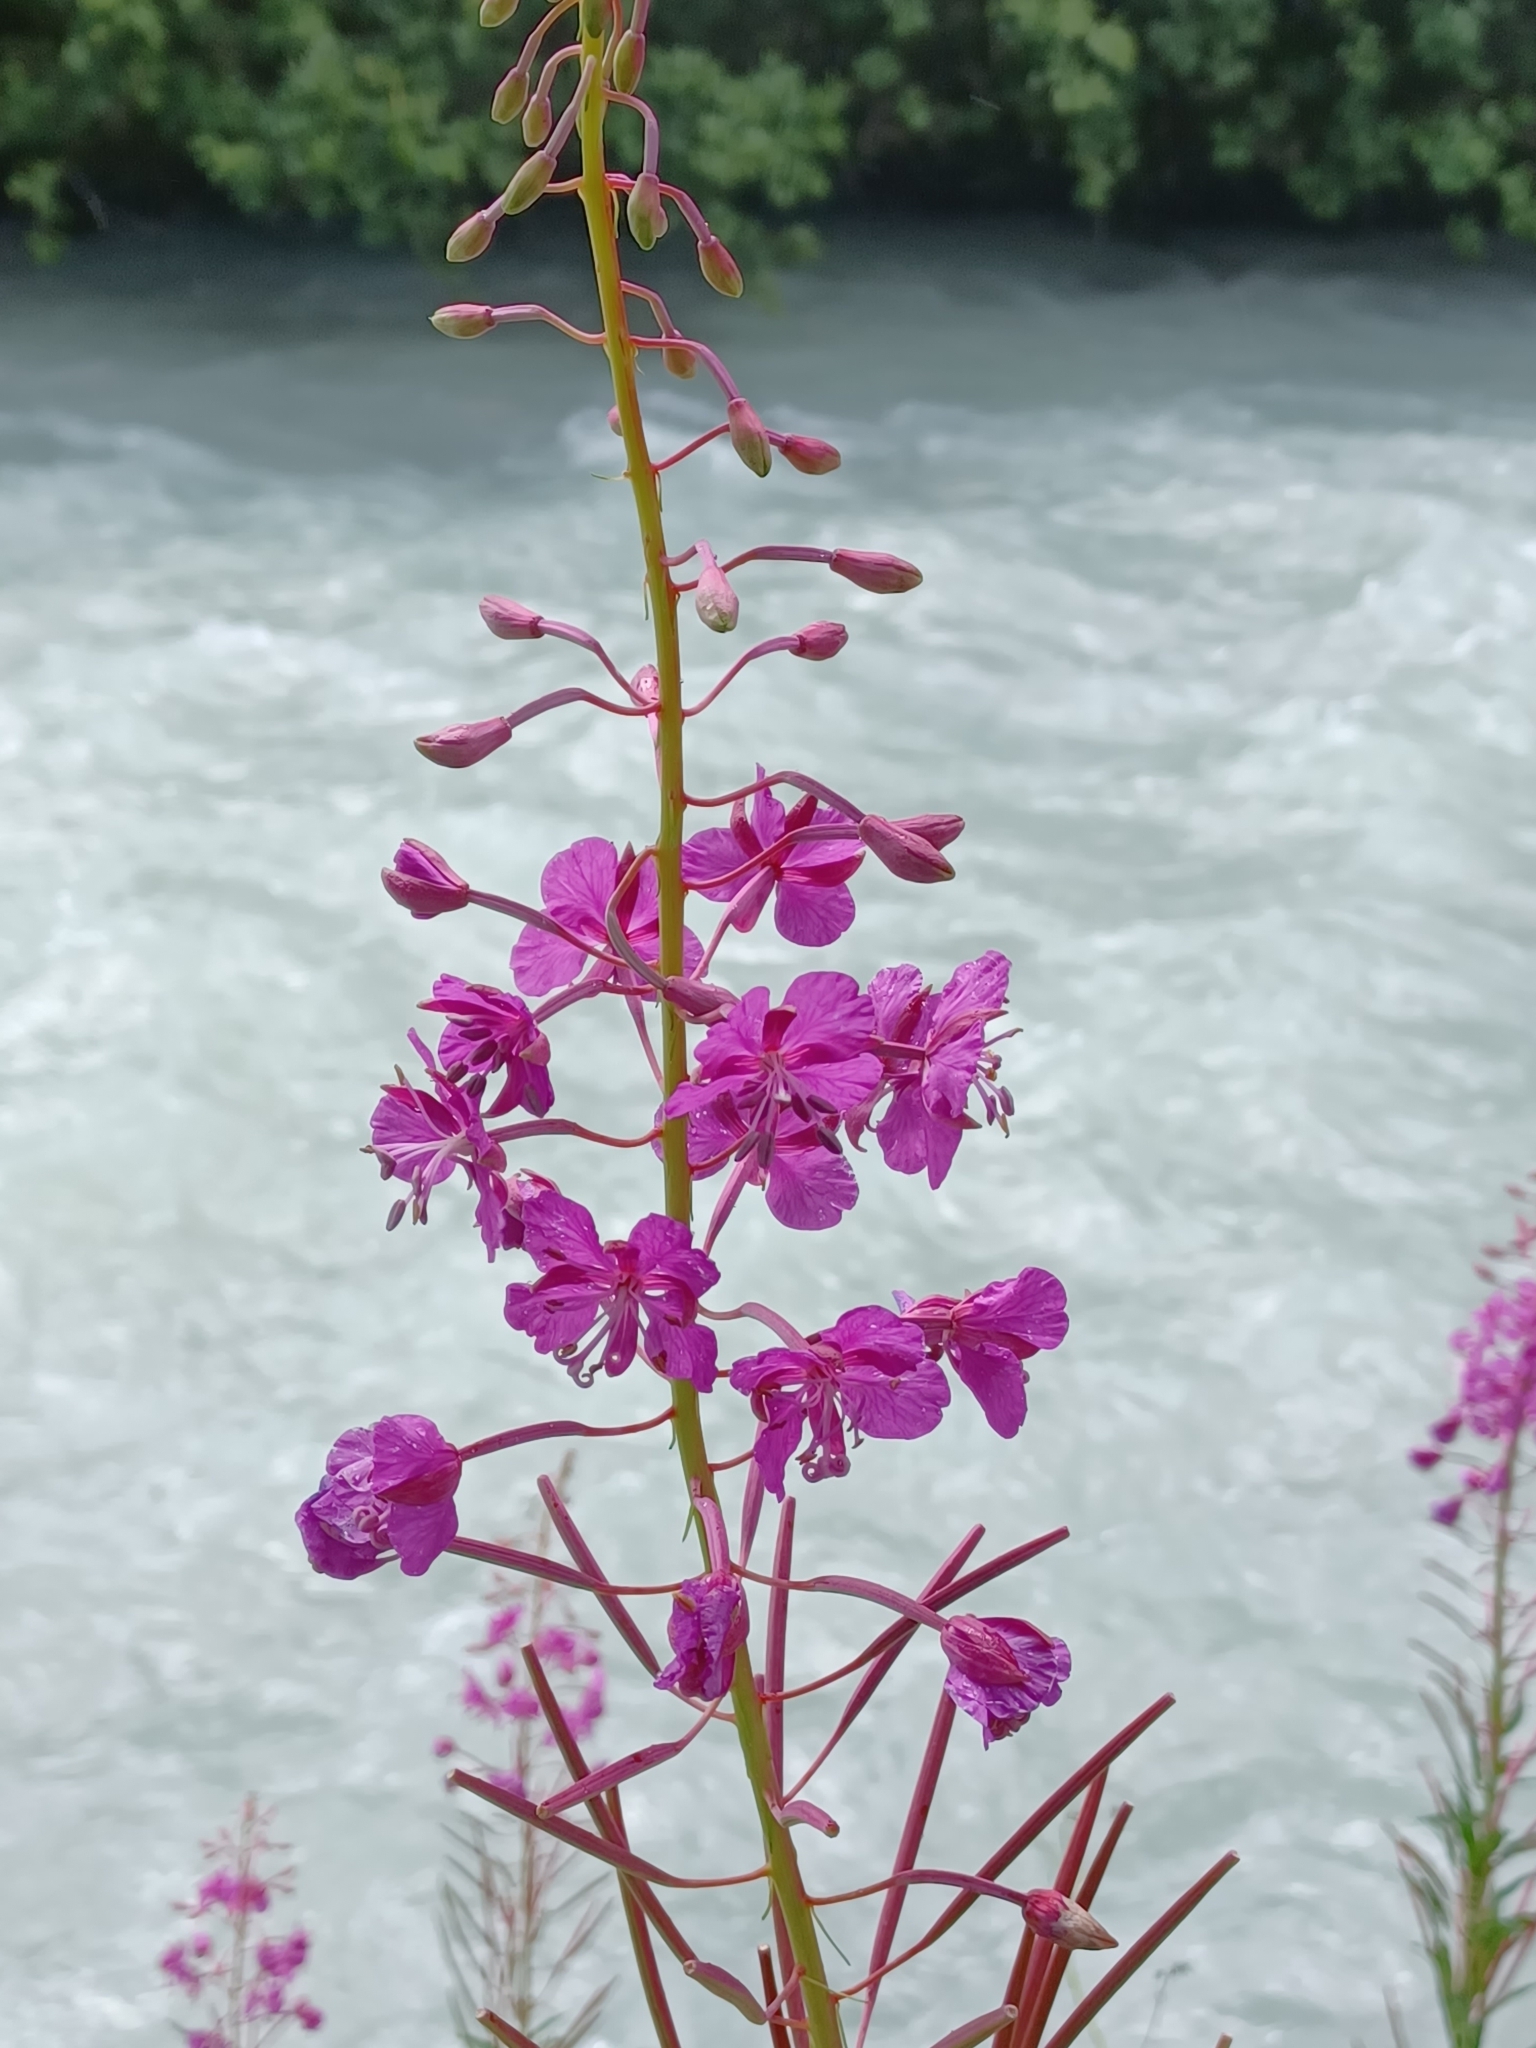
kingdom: Plantae
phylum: Tracheophyta
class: Magnoliopsida
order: Myrtales
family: Onagraceae
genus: Chamaenerion
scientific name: Chamaenerion angustifolium
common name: Fireweed
